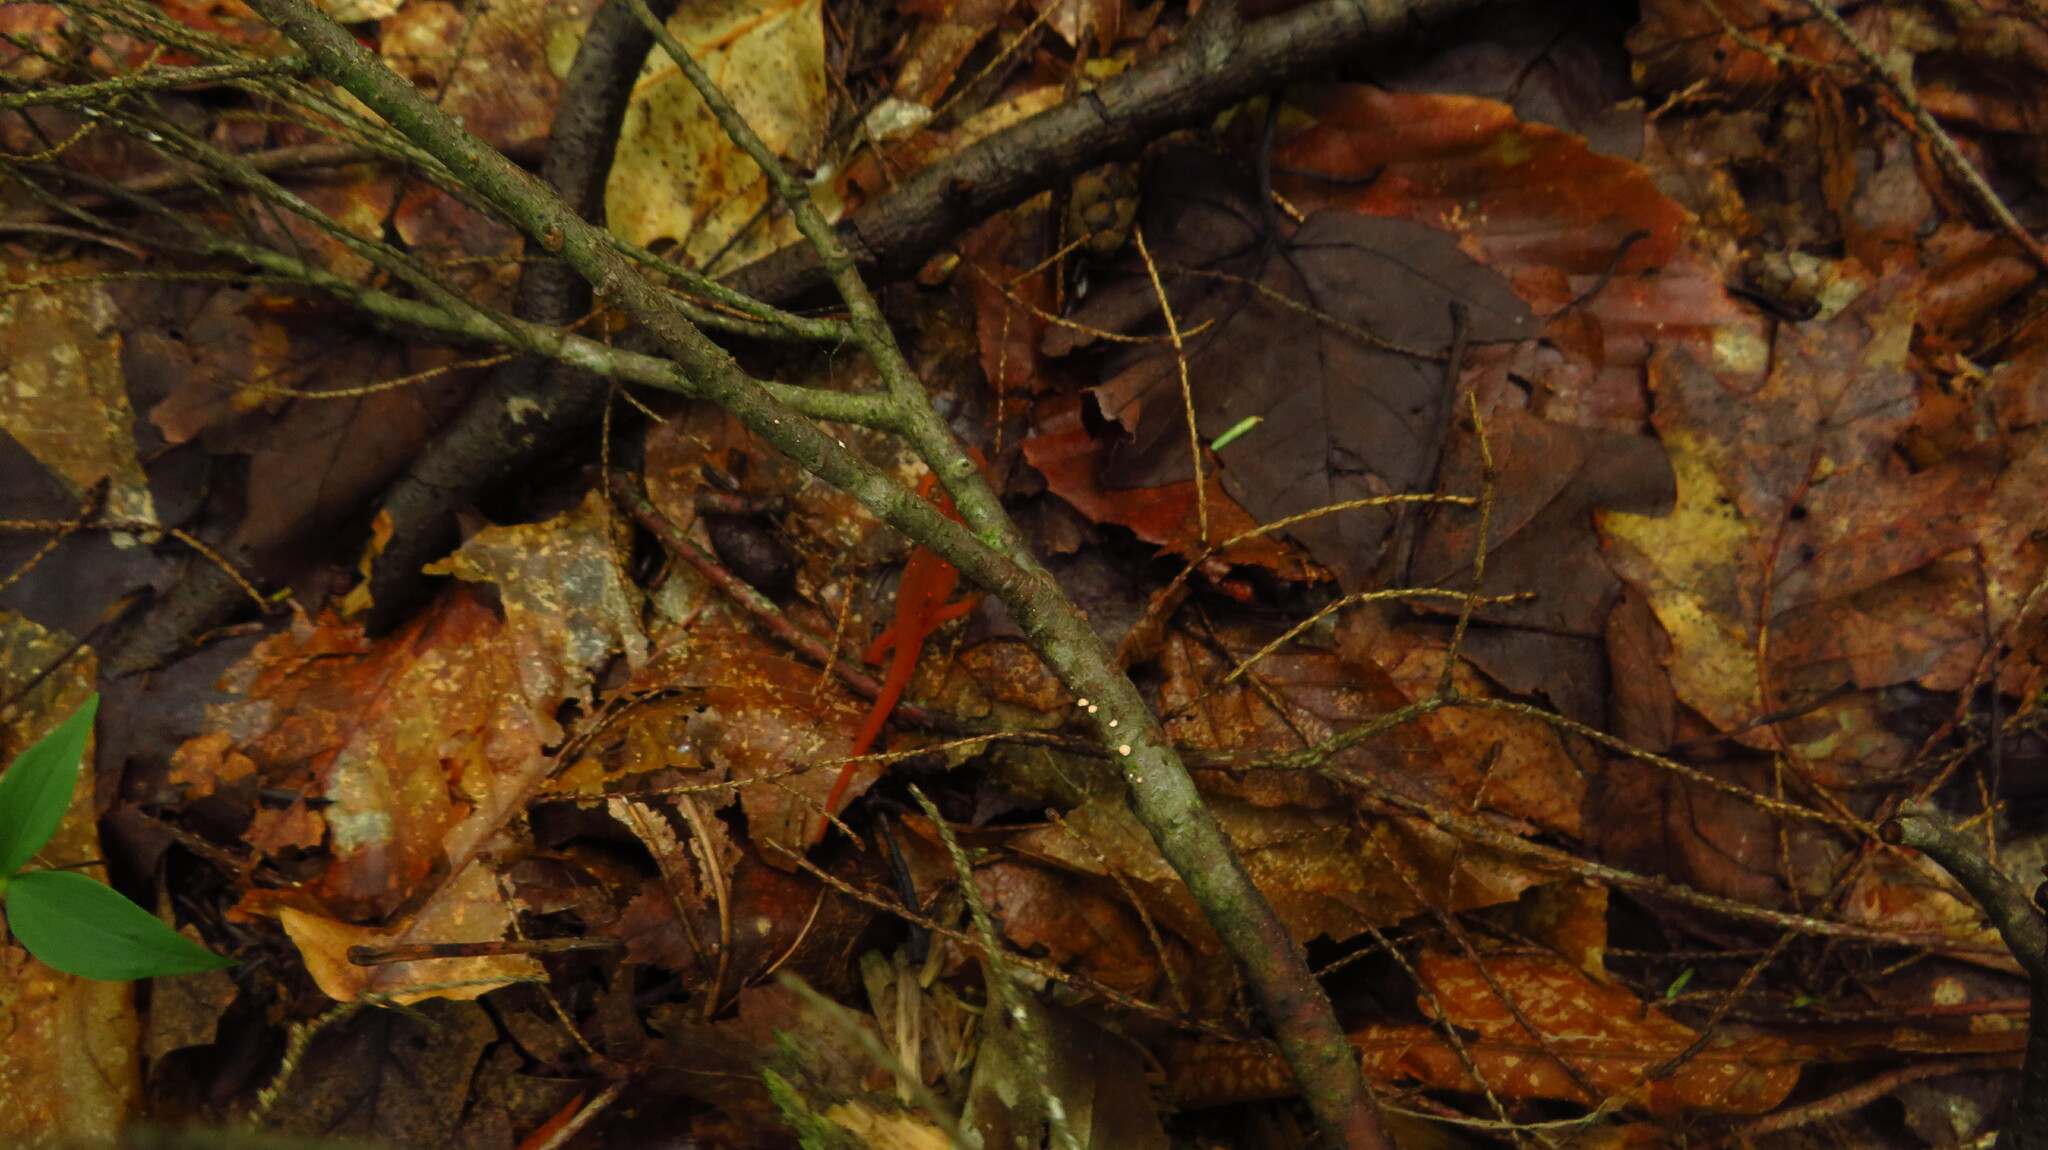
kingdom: Animalia
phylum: Chordata
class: Amphibia
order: Caudata
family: Salamandridae
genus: Notophthalmus
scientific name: Notophthalmus viridescens
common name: Eastern newt
